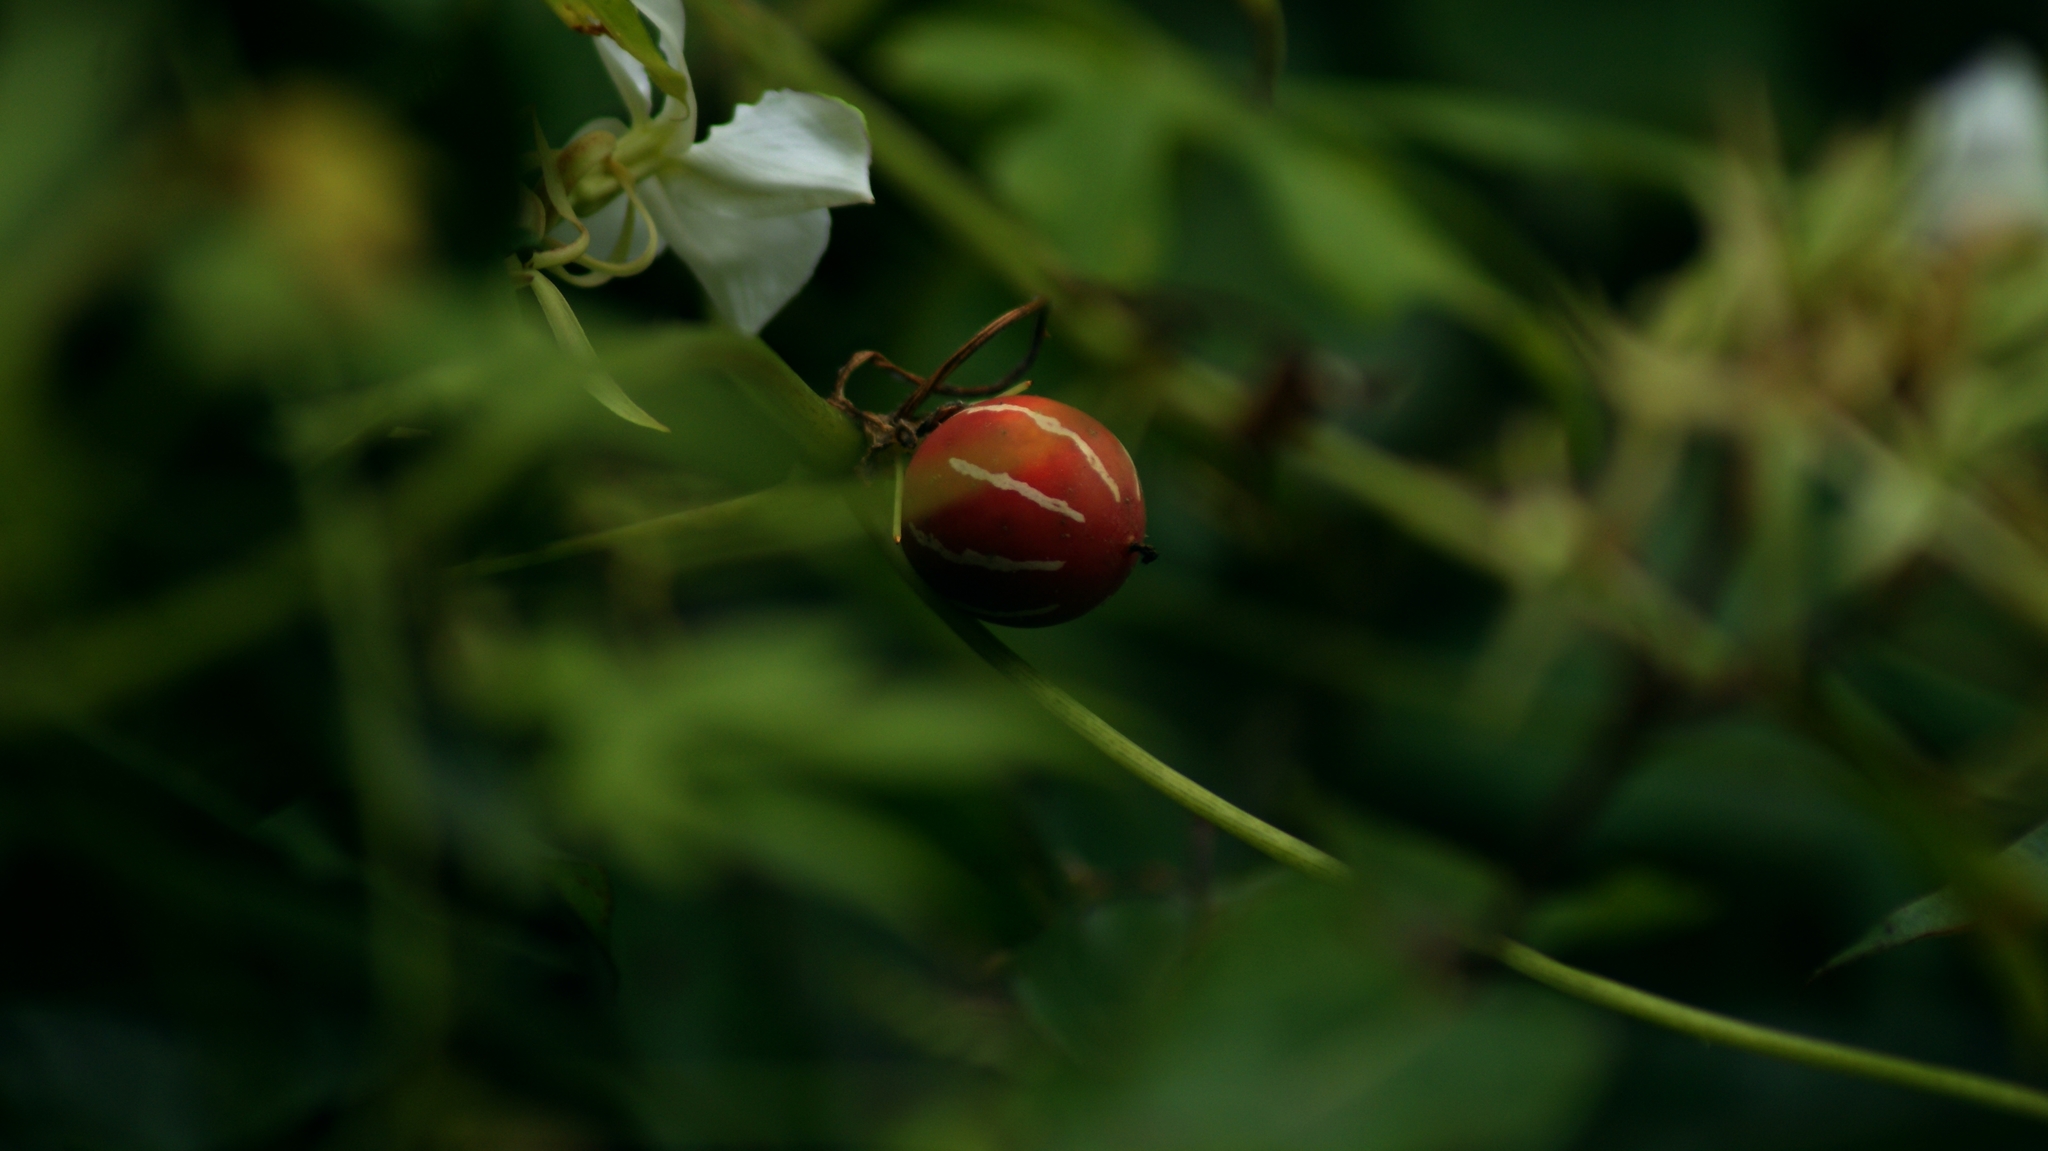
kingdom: Plantae
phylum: Tracheophyta
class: Magnoliopsida
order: Cucurbitales
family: Cucurbitaceae
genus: Diplocyclos
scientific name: Diplocyclos palmatus
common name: Striped-cucumber
